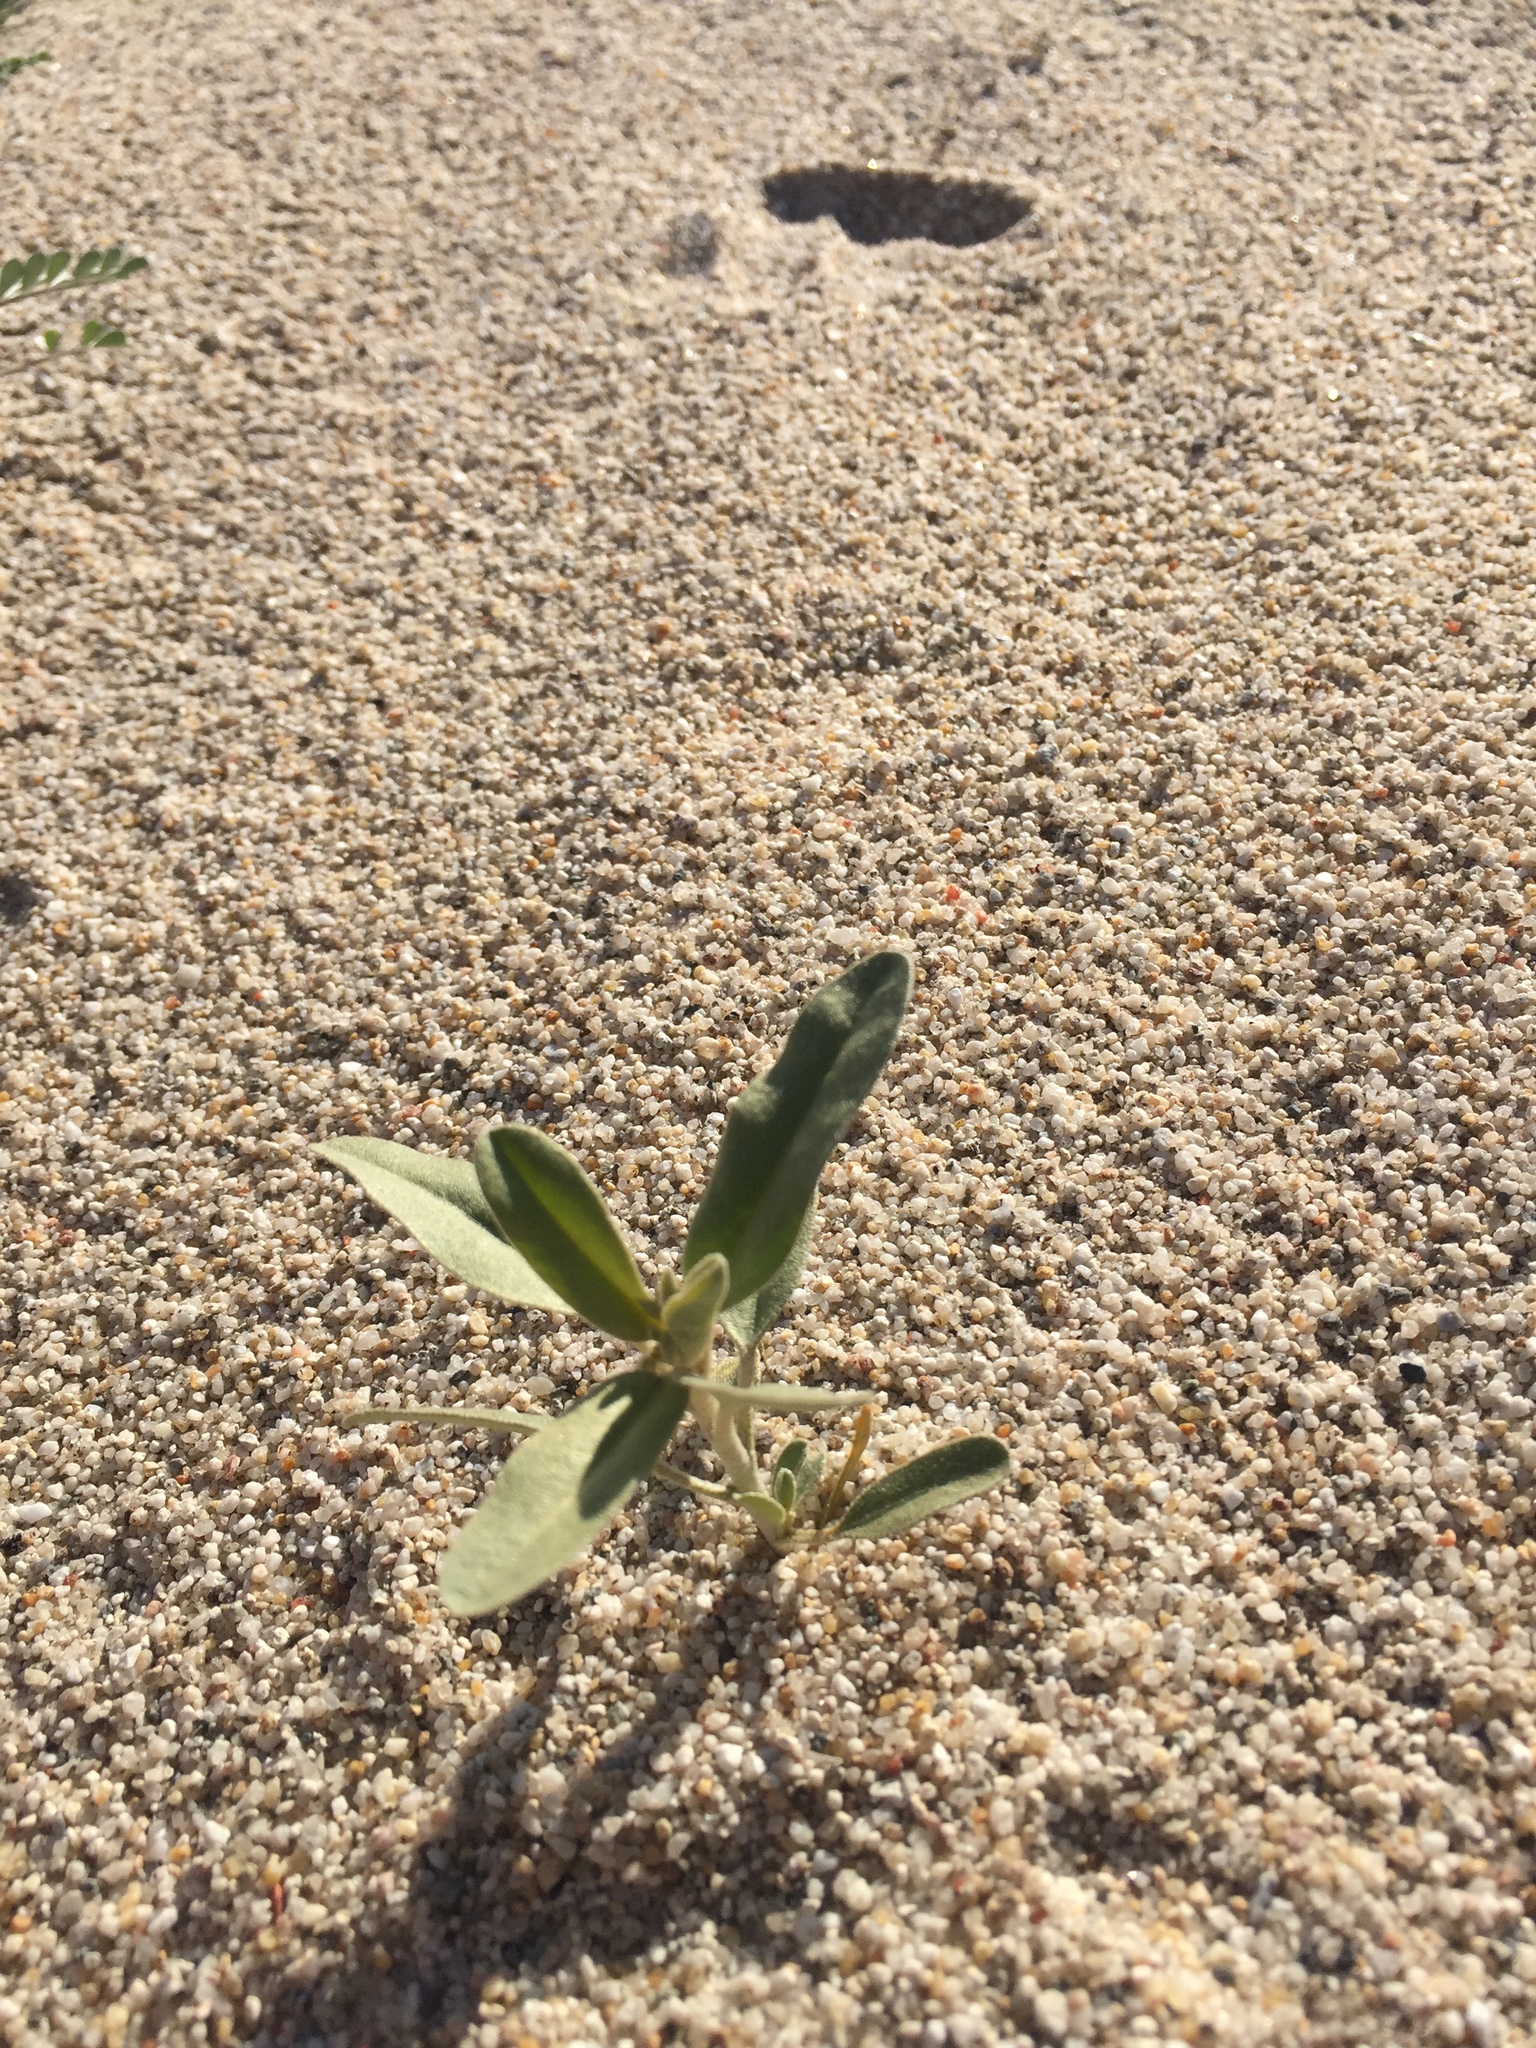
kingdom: Plantae
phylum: Tracheophyta
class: Magnoliopsida
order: Malpighiales
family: Euphorbiaceae
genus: Croton
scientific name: Croton californicus
